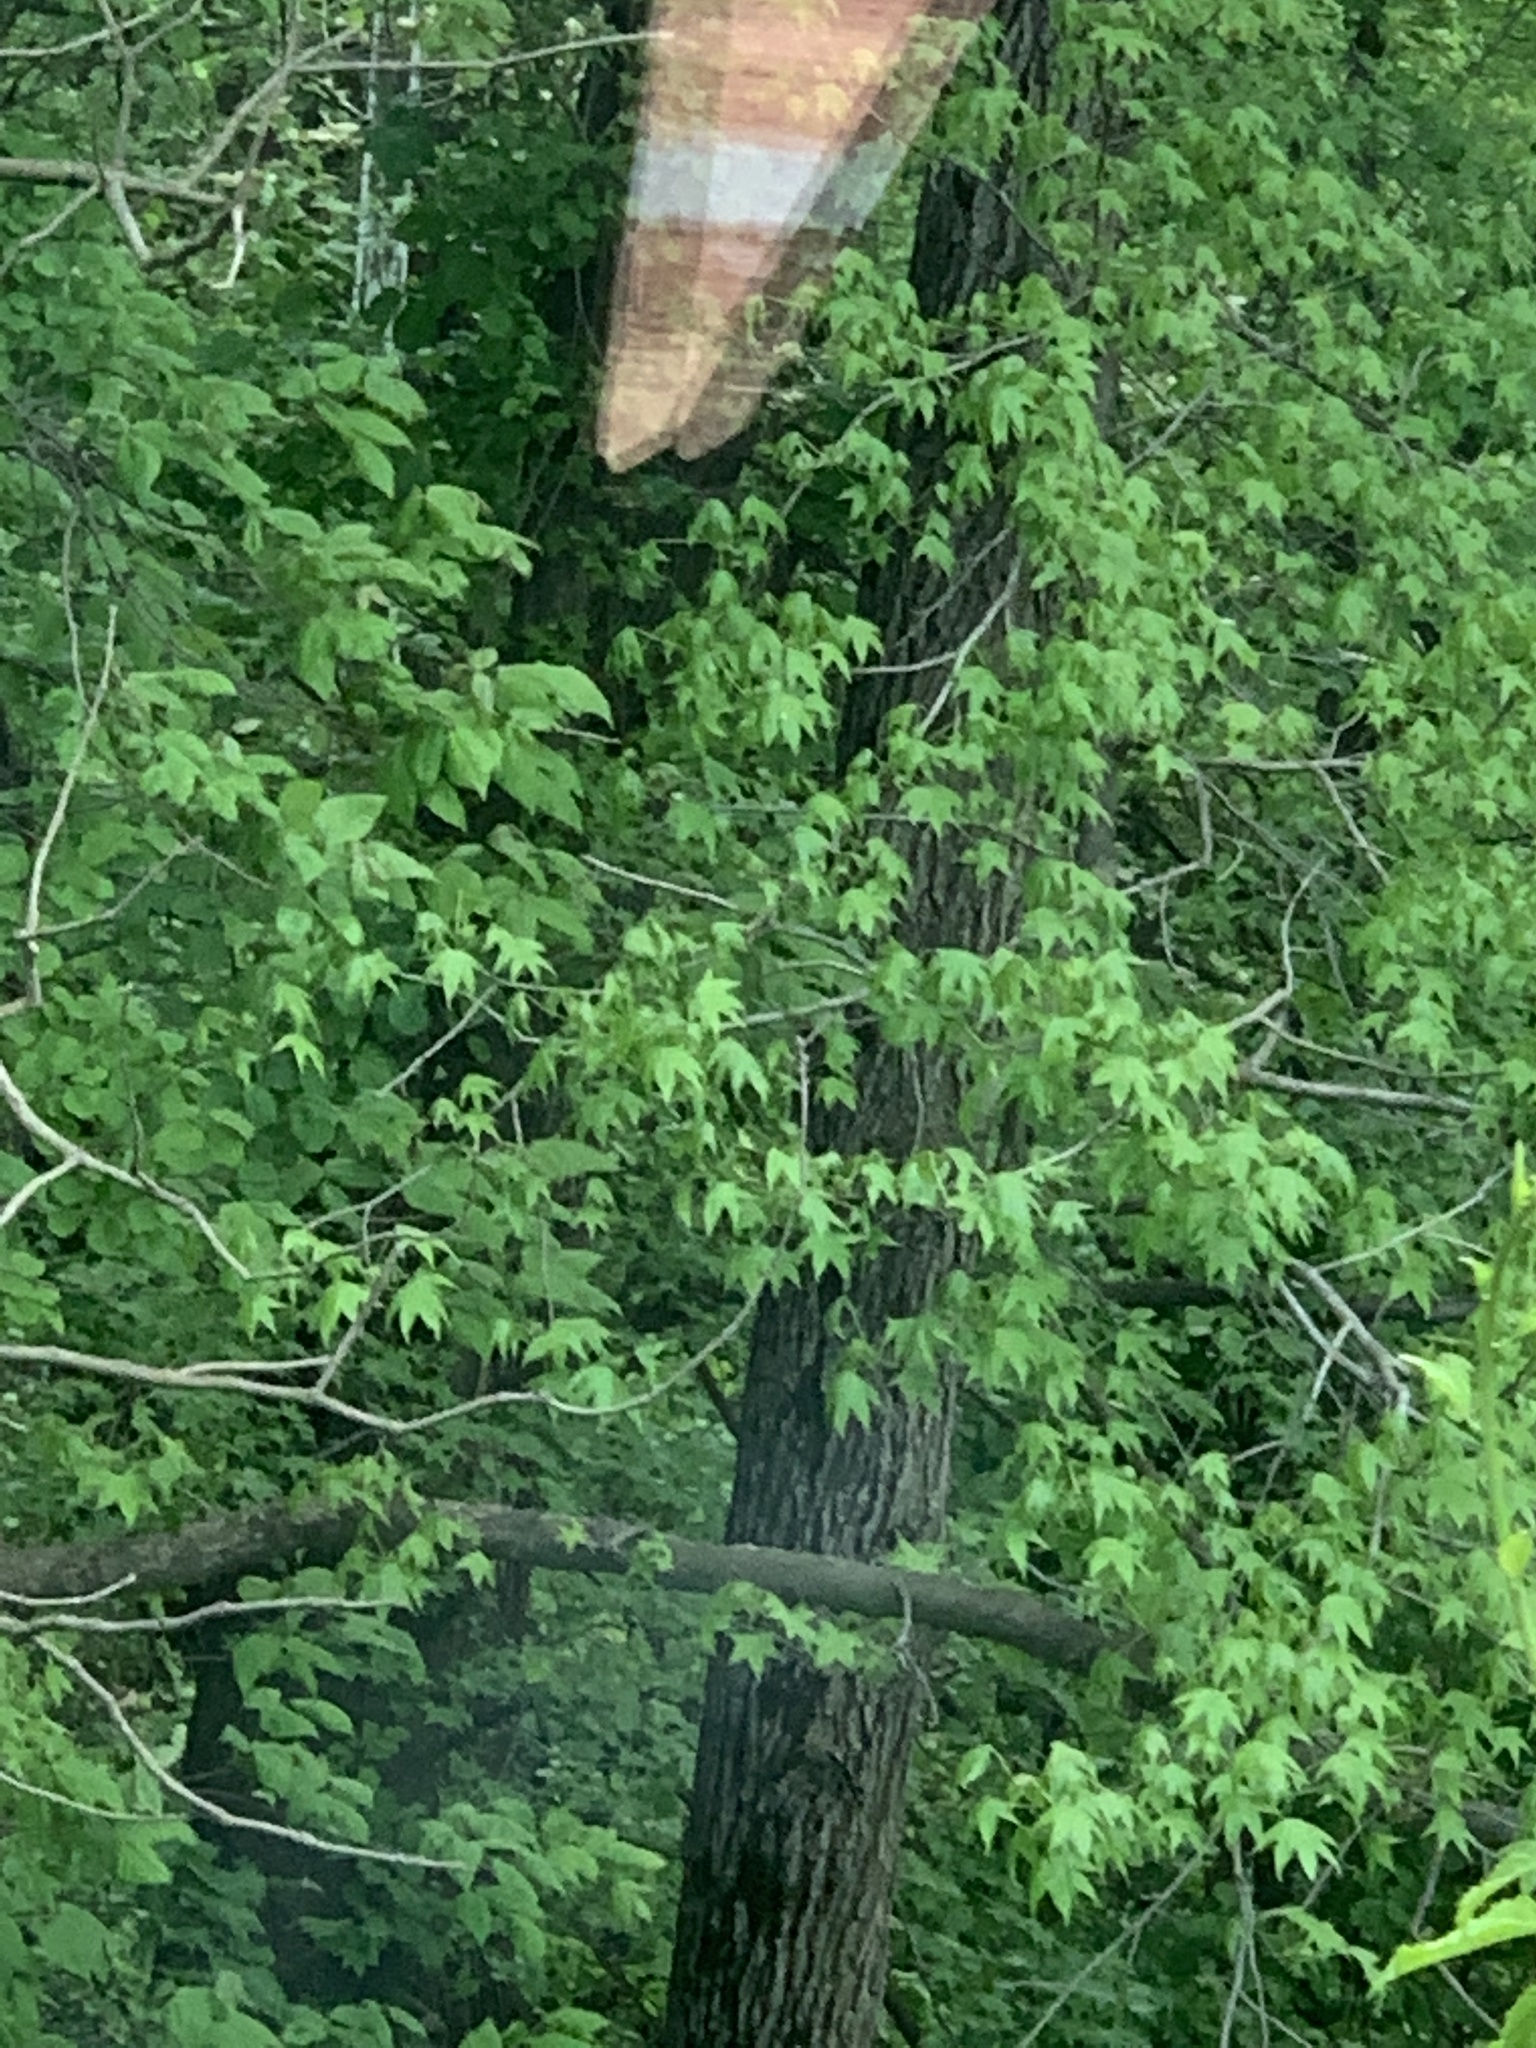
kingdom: Plantae
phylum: Tracheophyta
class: Magnoliopsida
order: Saxifragales
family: Altingiaceae
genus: Liquidambar
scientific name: Liquidambar styraciflua
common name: Sweet gum
